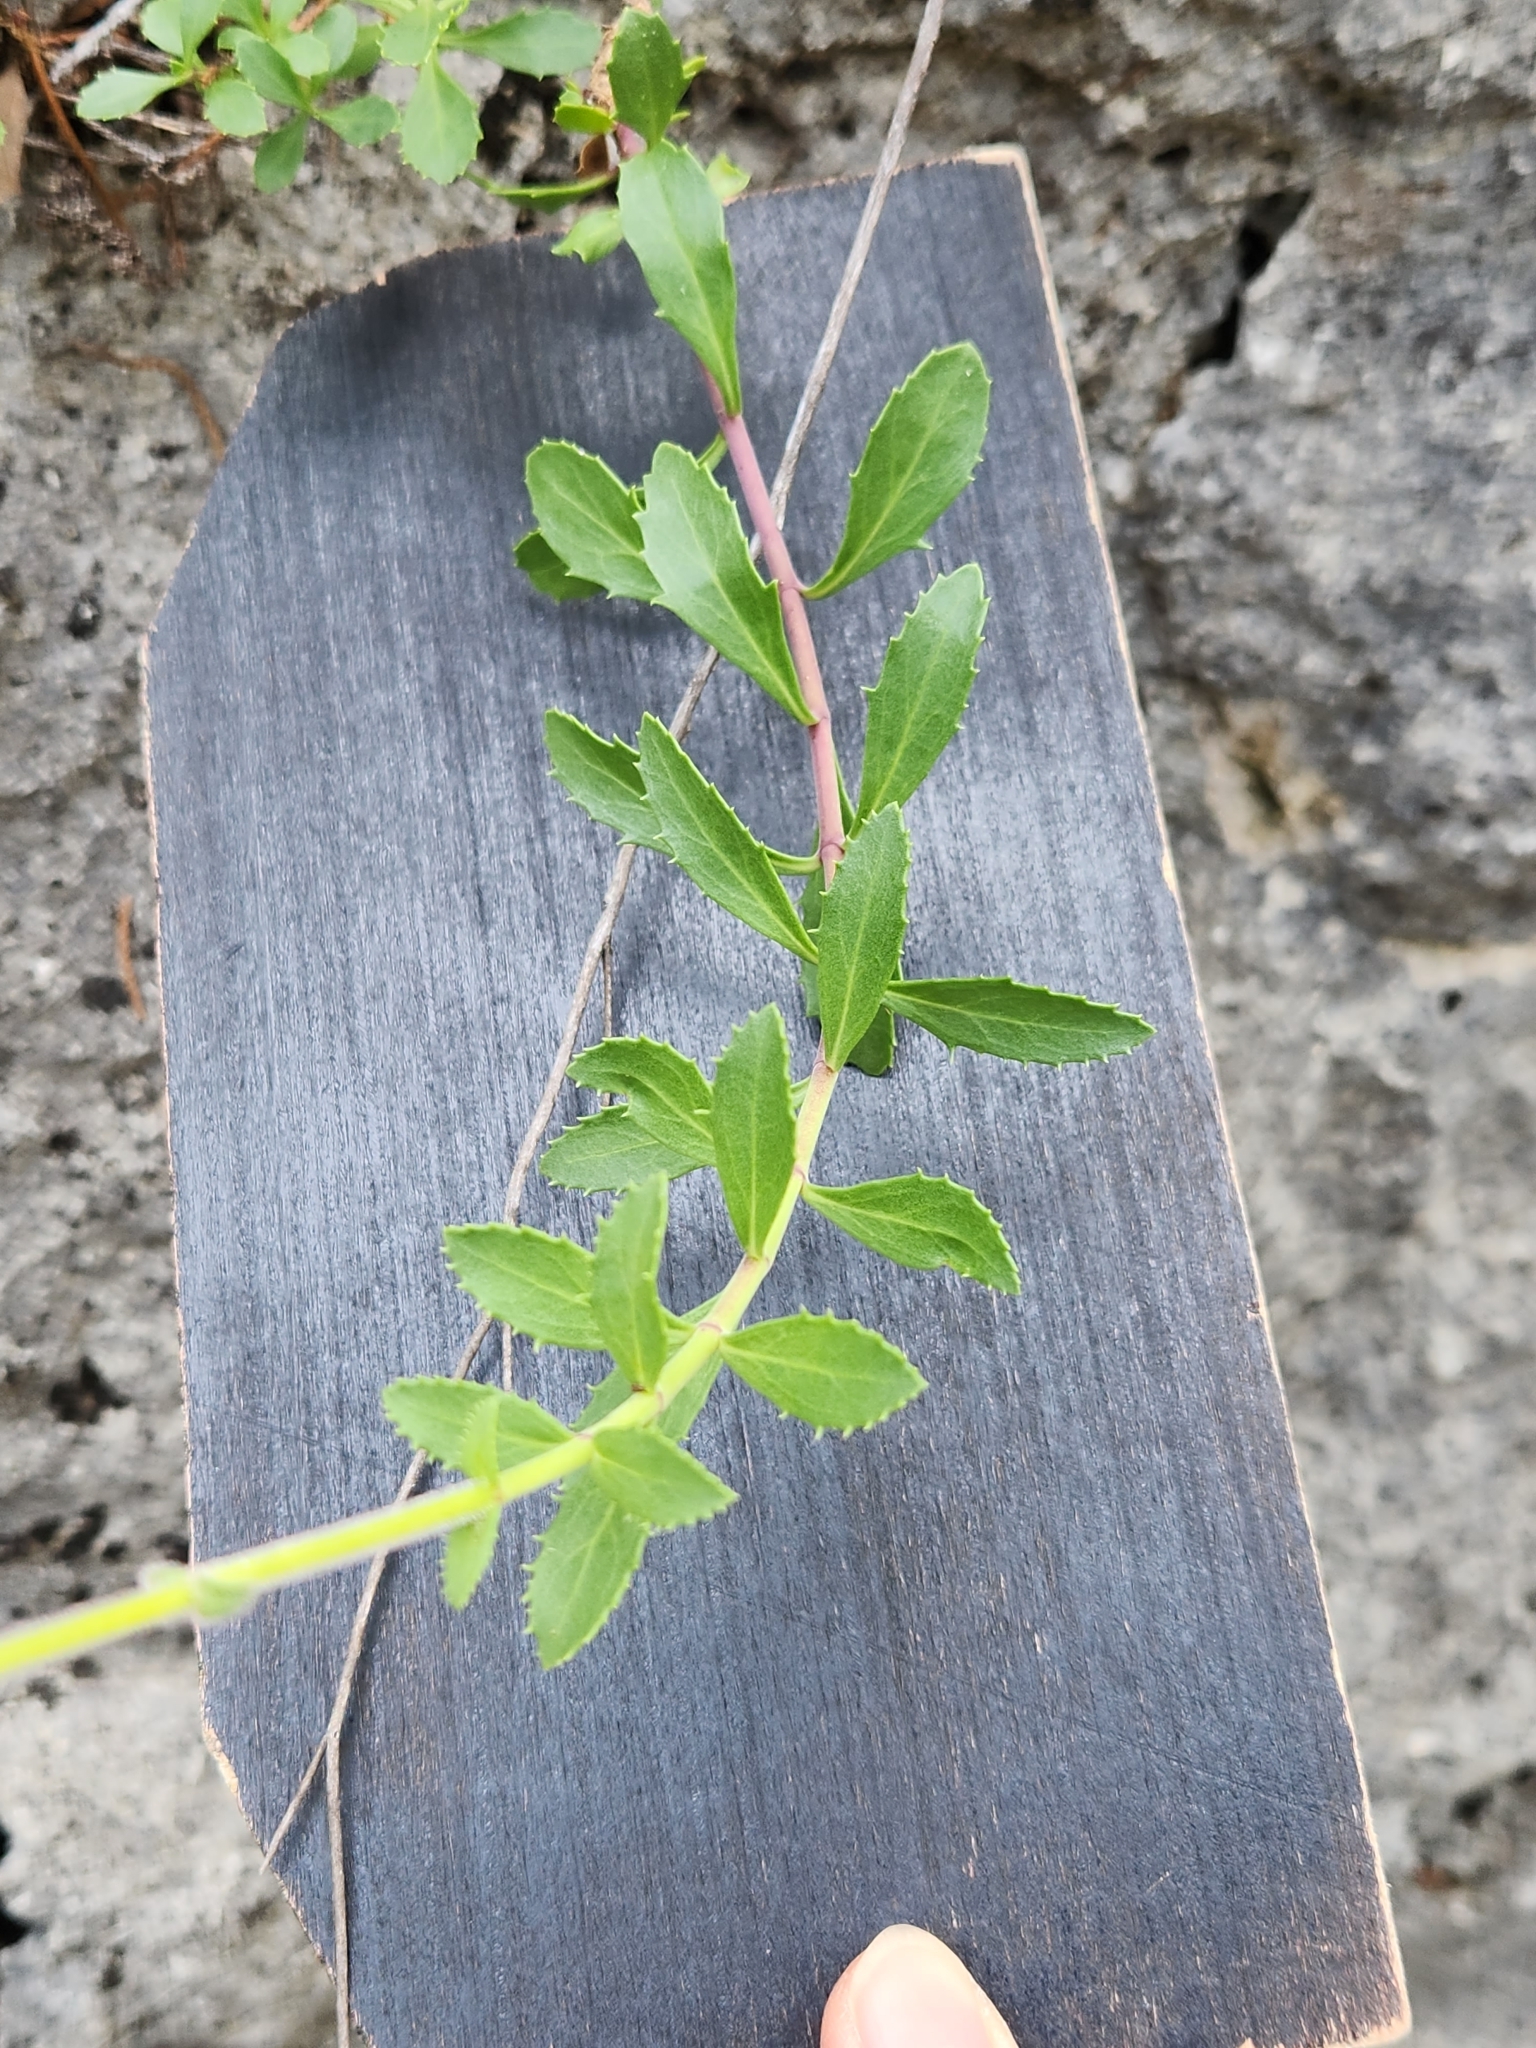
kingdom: Plantae
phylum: Tracheophyta
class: Magnoliopsida
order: Lamiales
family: Plantaginaceae
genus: Penstemon
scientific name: Penstemon baccharifolius
